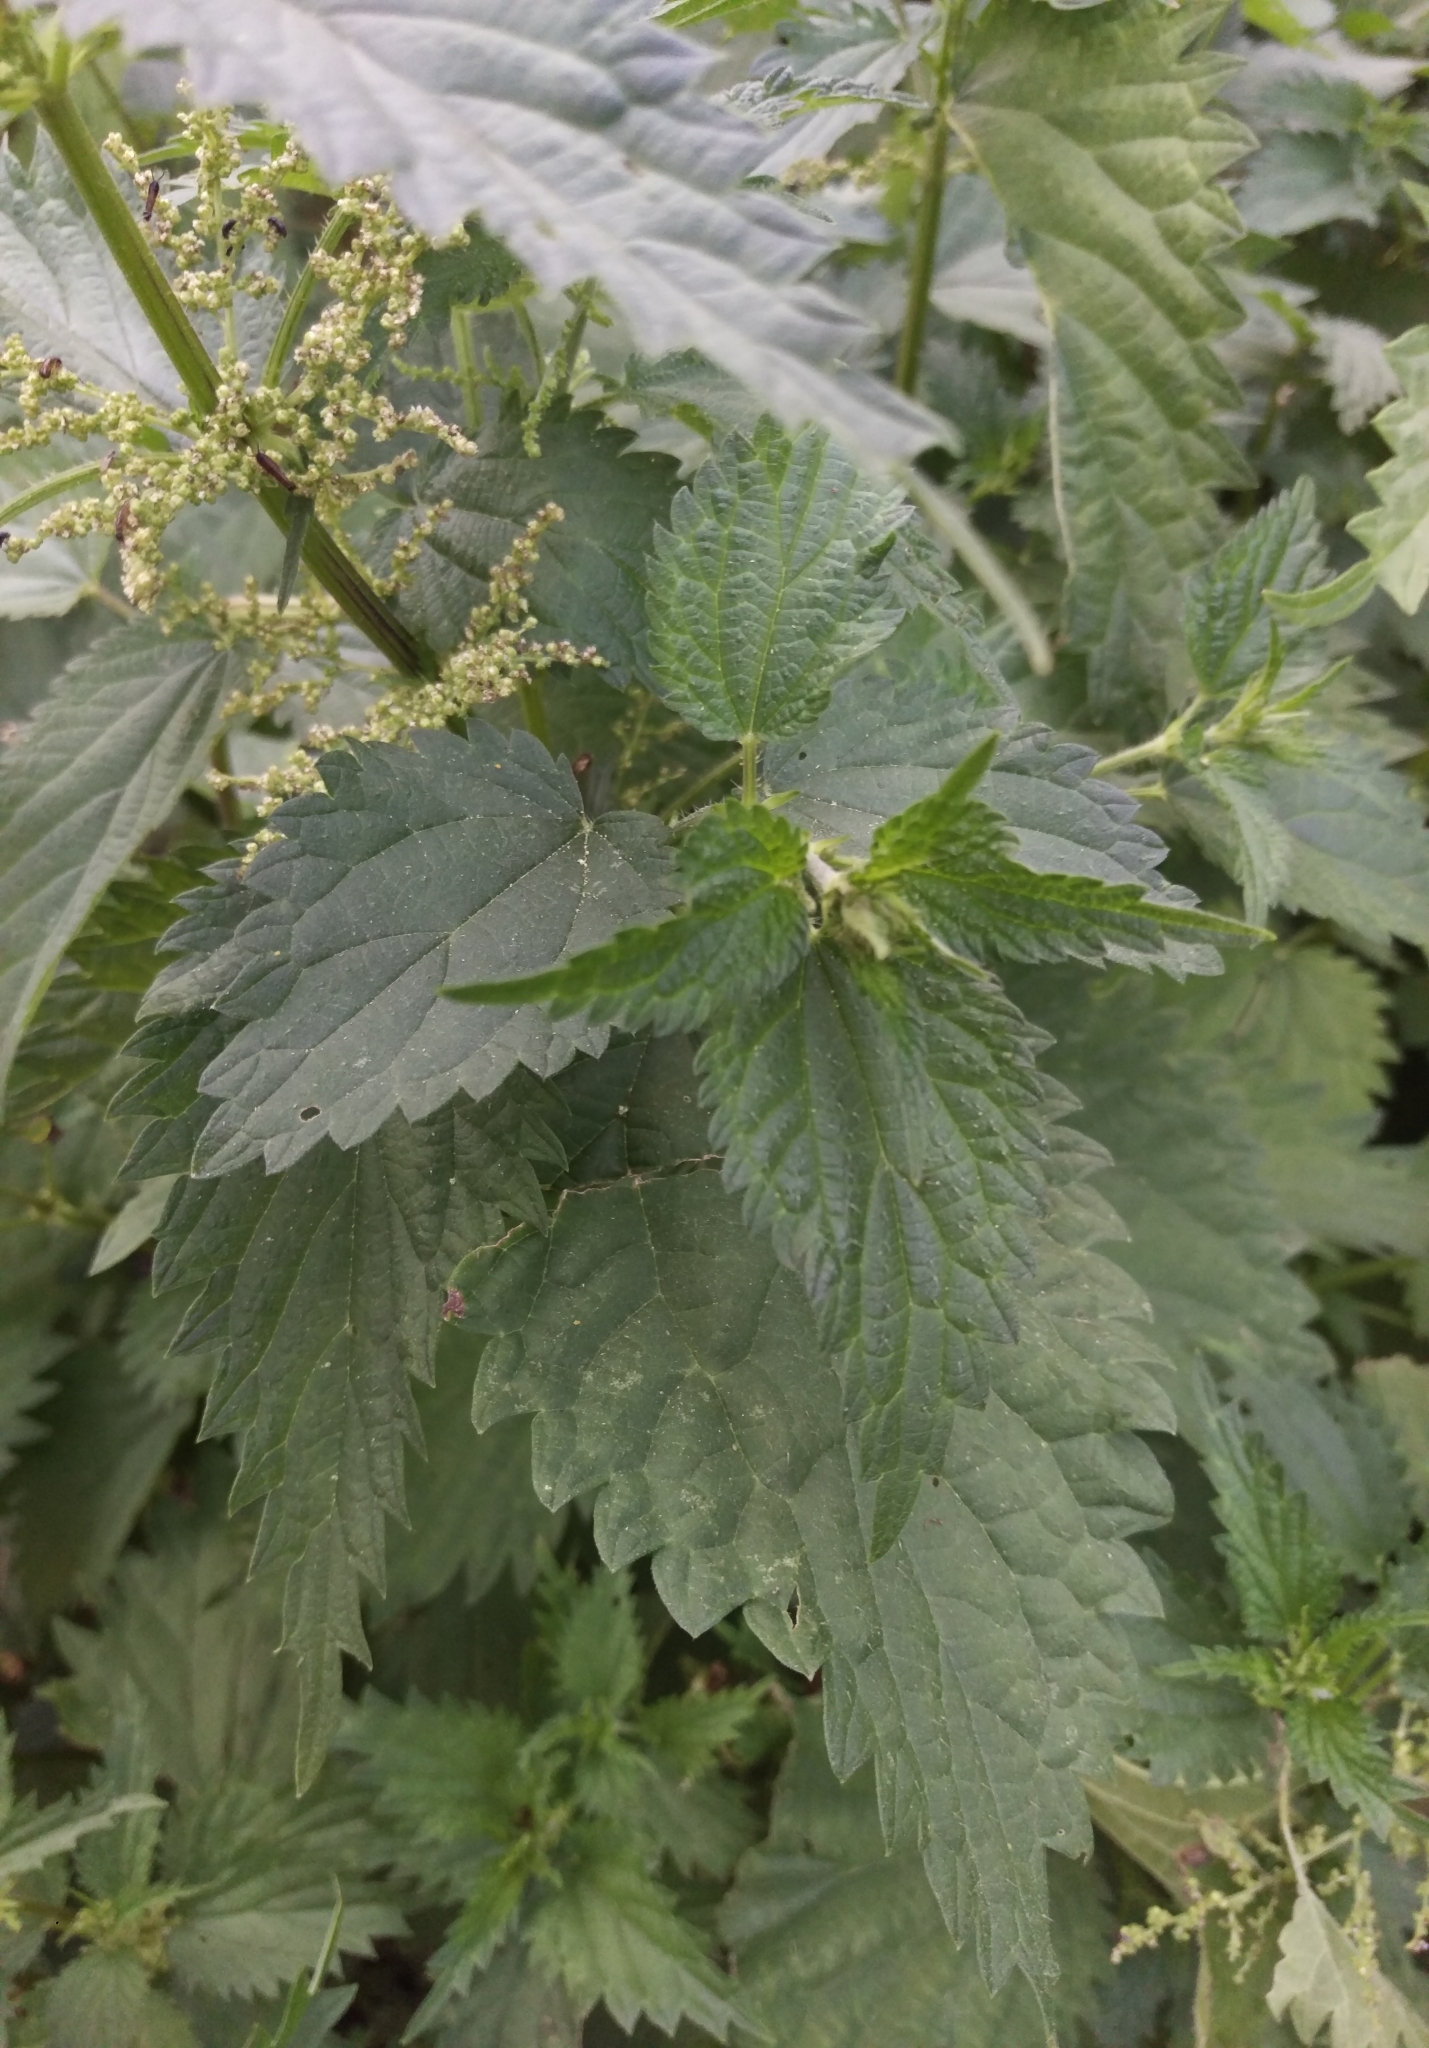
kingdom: Plantae
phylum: Tracheophyta
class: Magnoliopsida
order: Rosales
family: Urticaceae
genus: Urtica
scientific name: Urtica dioica
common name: Common nettle
